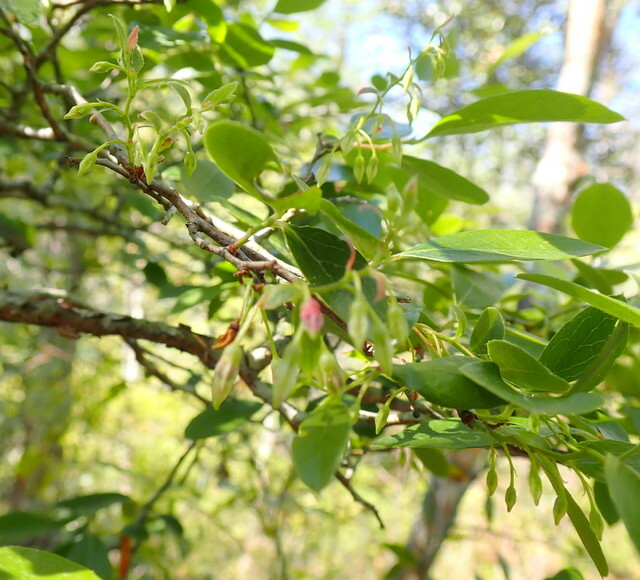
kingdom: Plantae
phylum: Tracheophyta
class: Magnoliopsida
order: Ericales
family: Ericaceae
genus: Vaccinium
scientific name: Vaccinium arboreum
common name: Farkleberry
